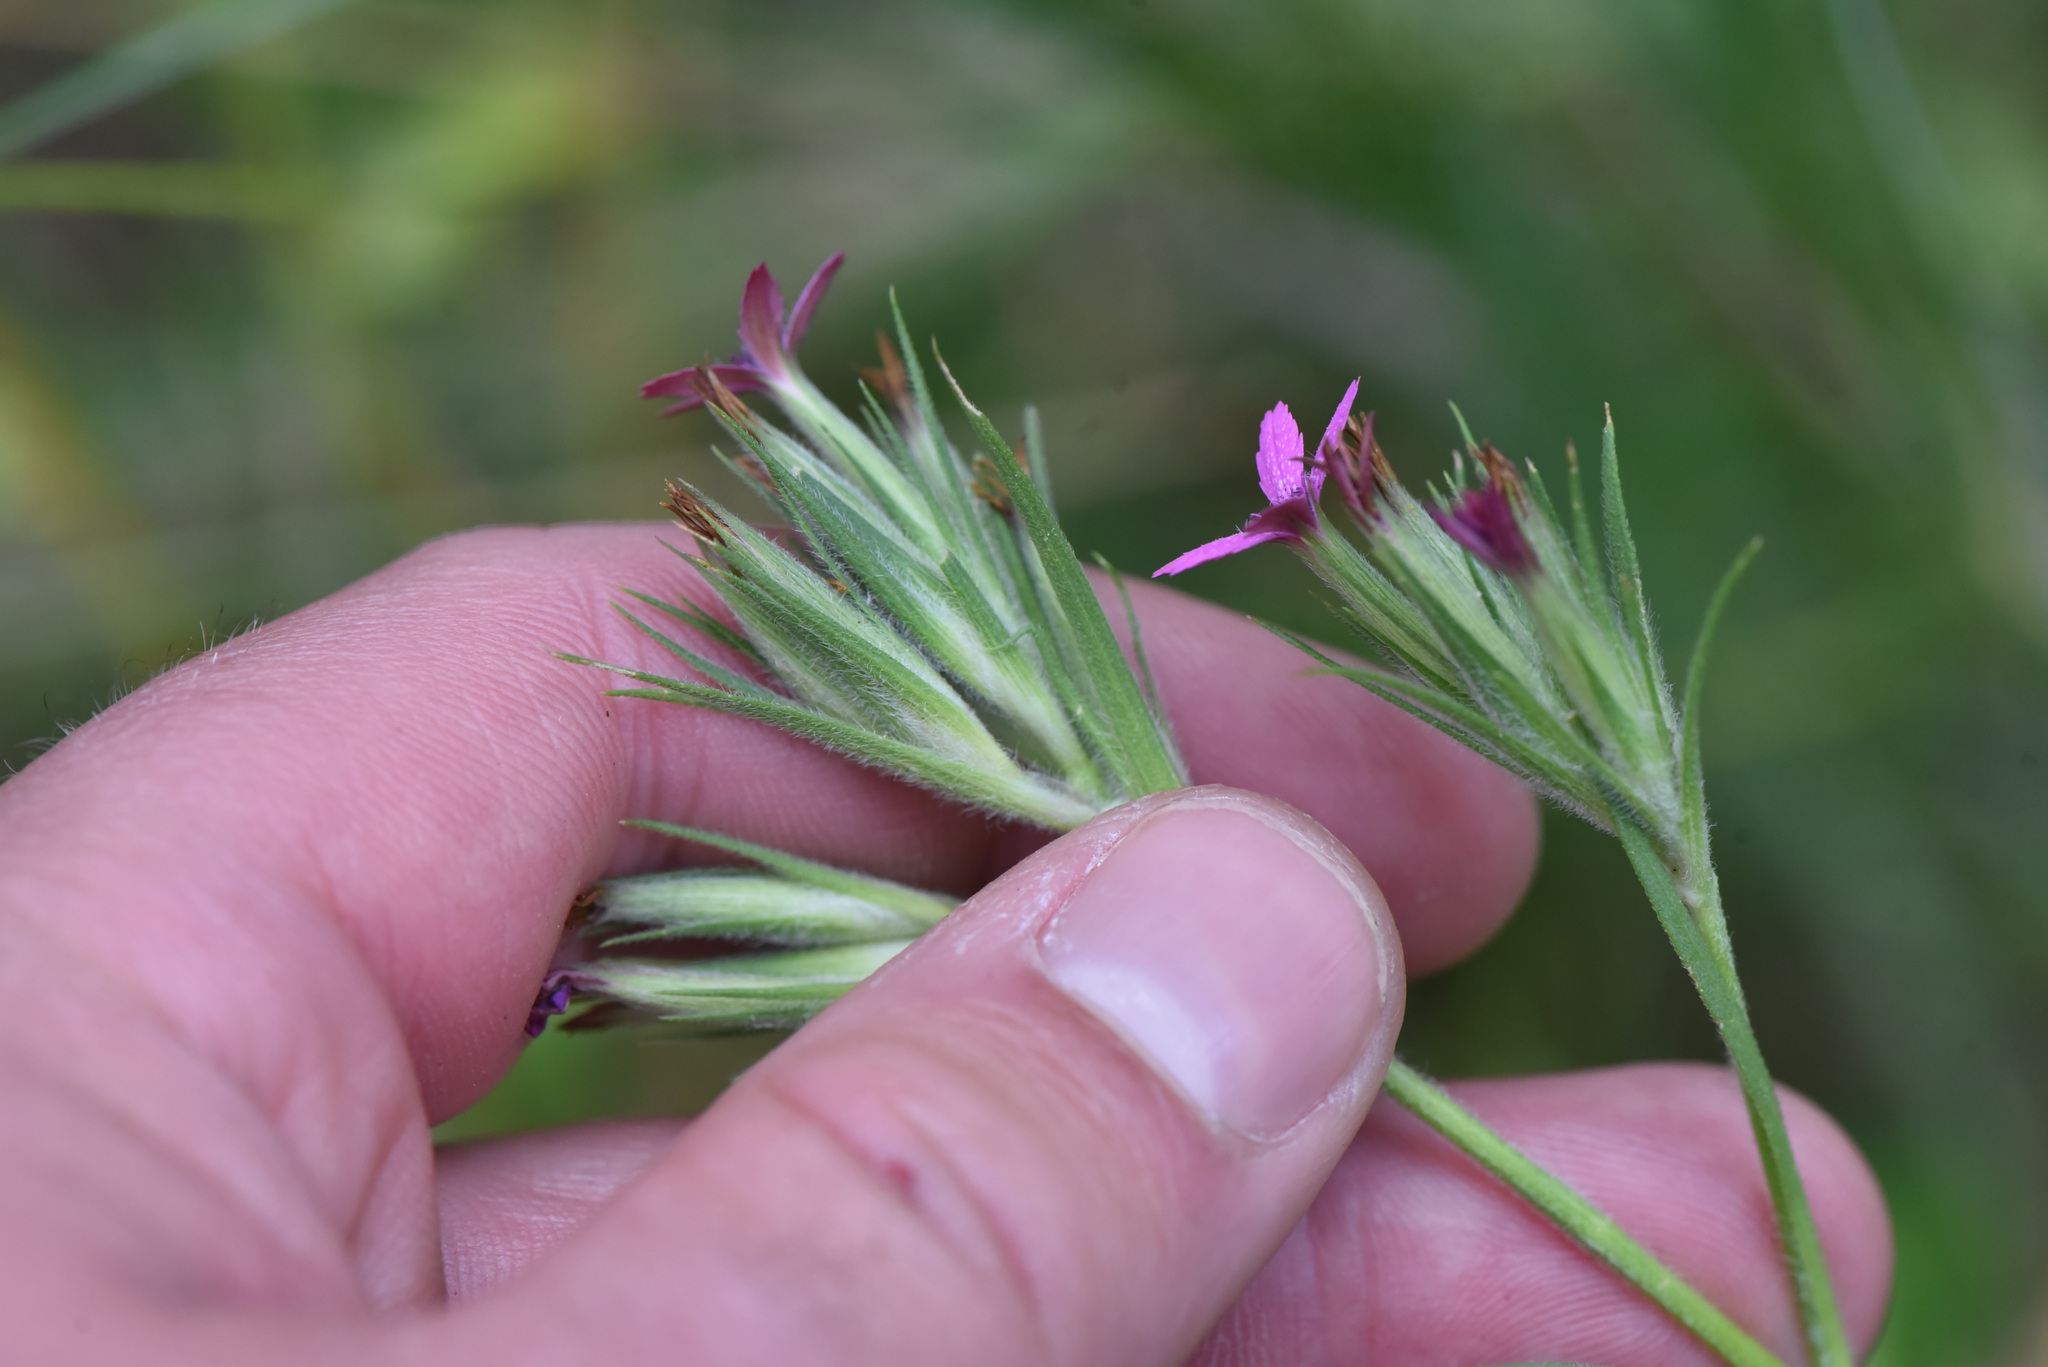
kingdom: Plantae
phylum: Tracheophyta
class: Magnoliopsida
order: Caryophyllales
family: Caryophyllaceae
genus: Dianthus
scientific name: Dianthus armeria
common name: Deptford pink
